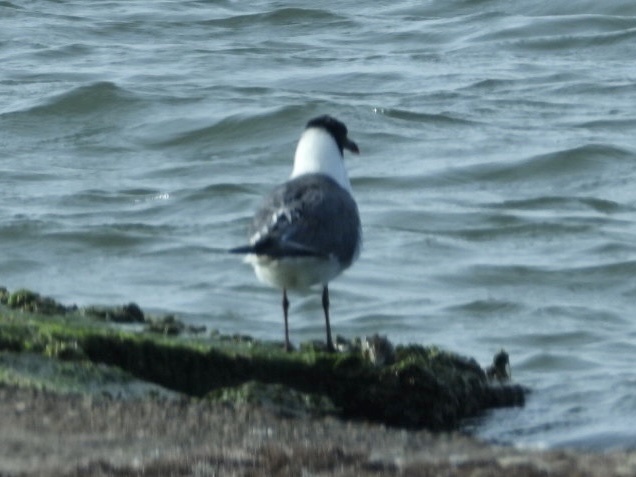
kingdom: Animalia
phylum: Chordata
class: Aves
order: Charadriiformes
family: Laridae
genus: Leucophaeus
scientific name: Leucophaeus atricilla
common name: Laughing gull
